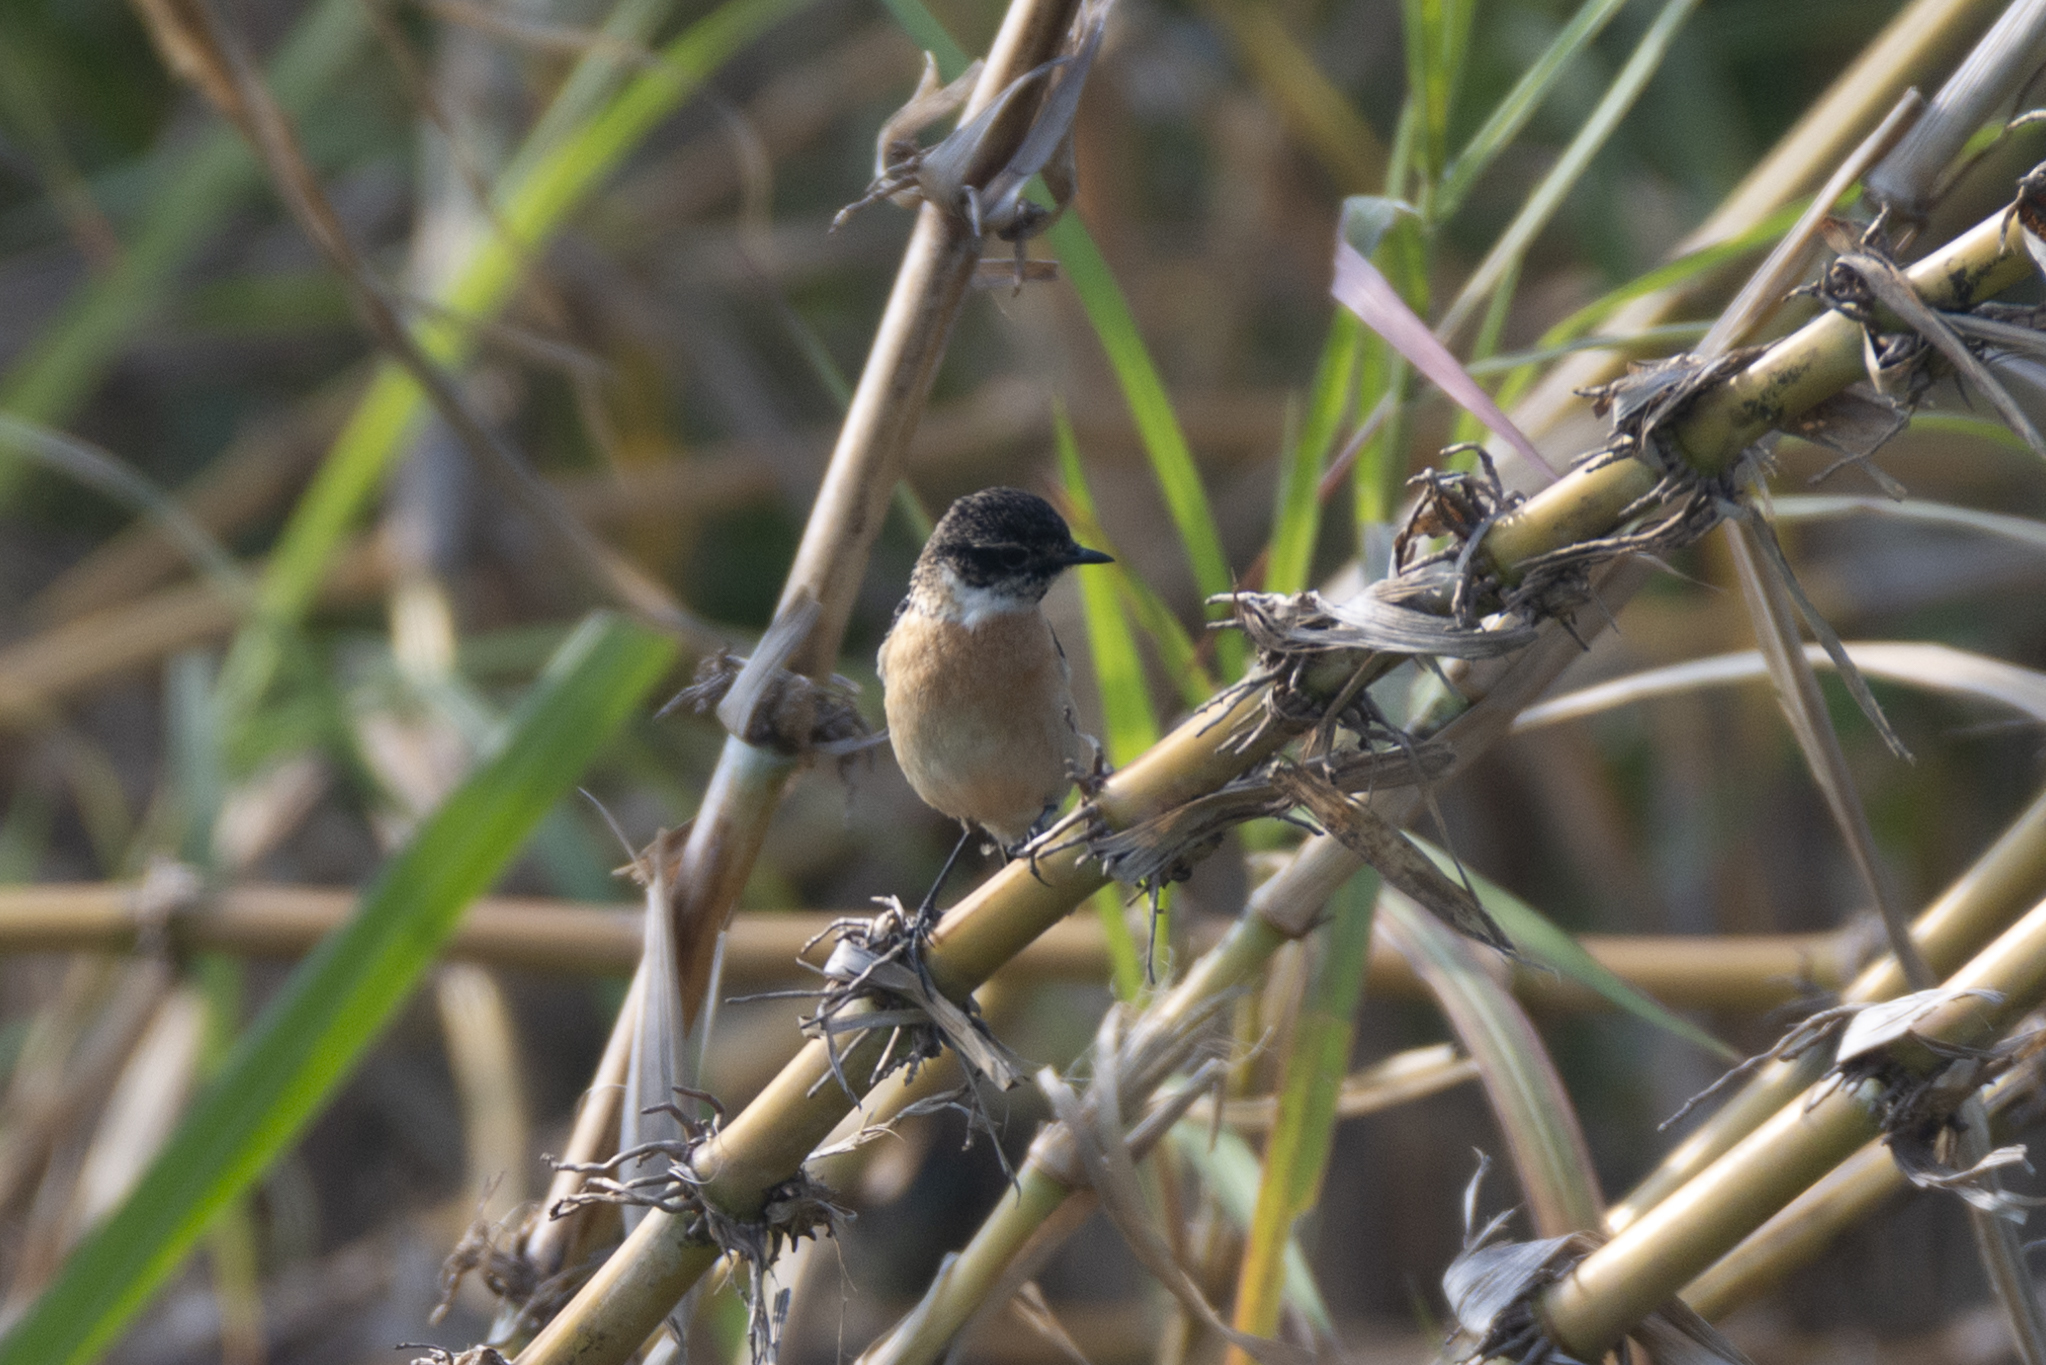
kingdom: Animalia
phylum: Chordata
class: Aves
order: Passeriformes
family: Muscicapidae
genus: Saxicola
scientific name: Saxicola stejnegeri
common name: Stejneger's stonechat
